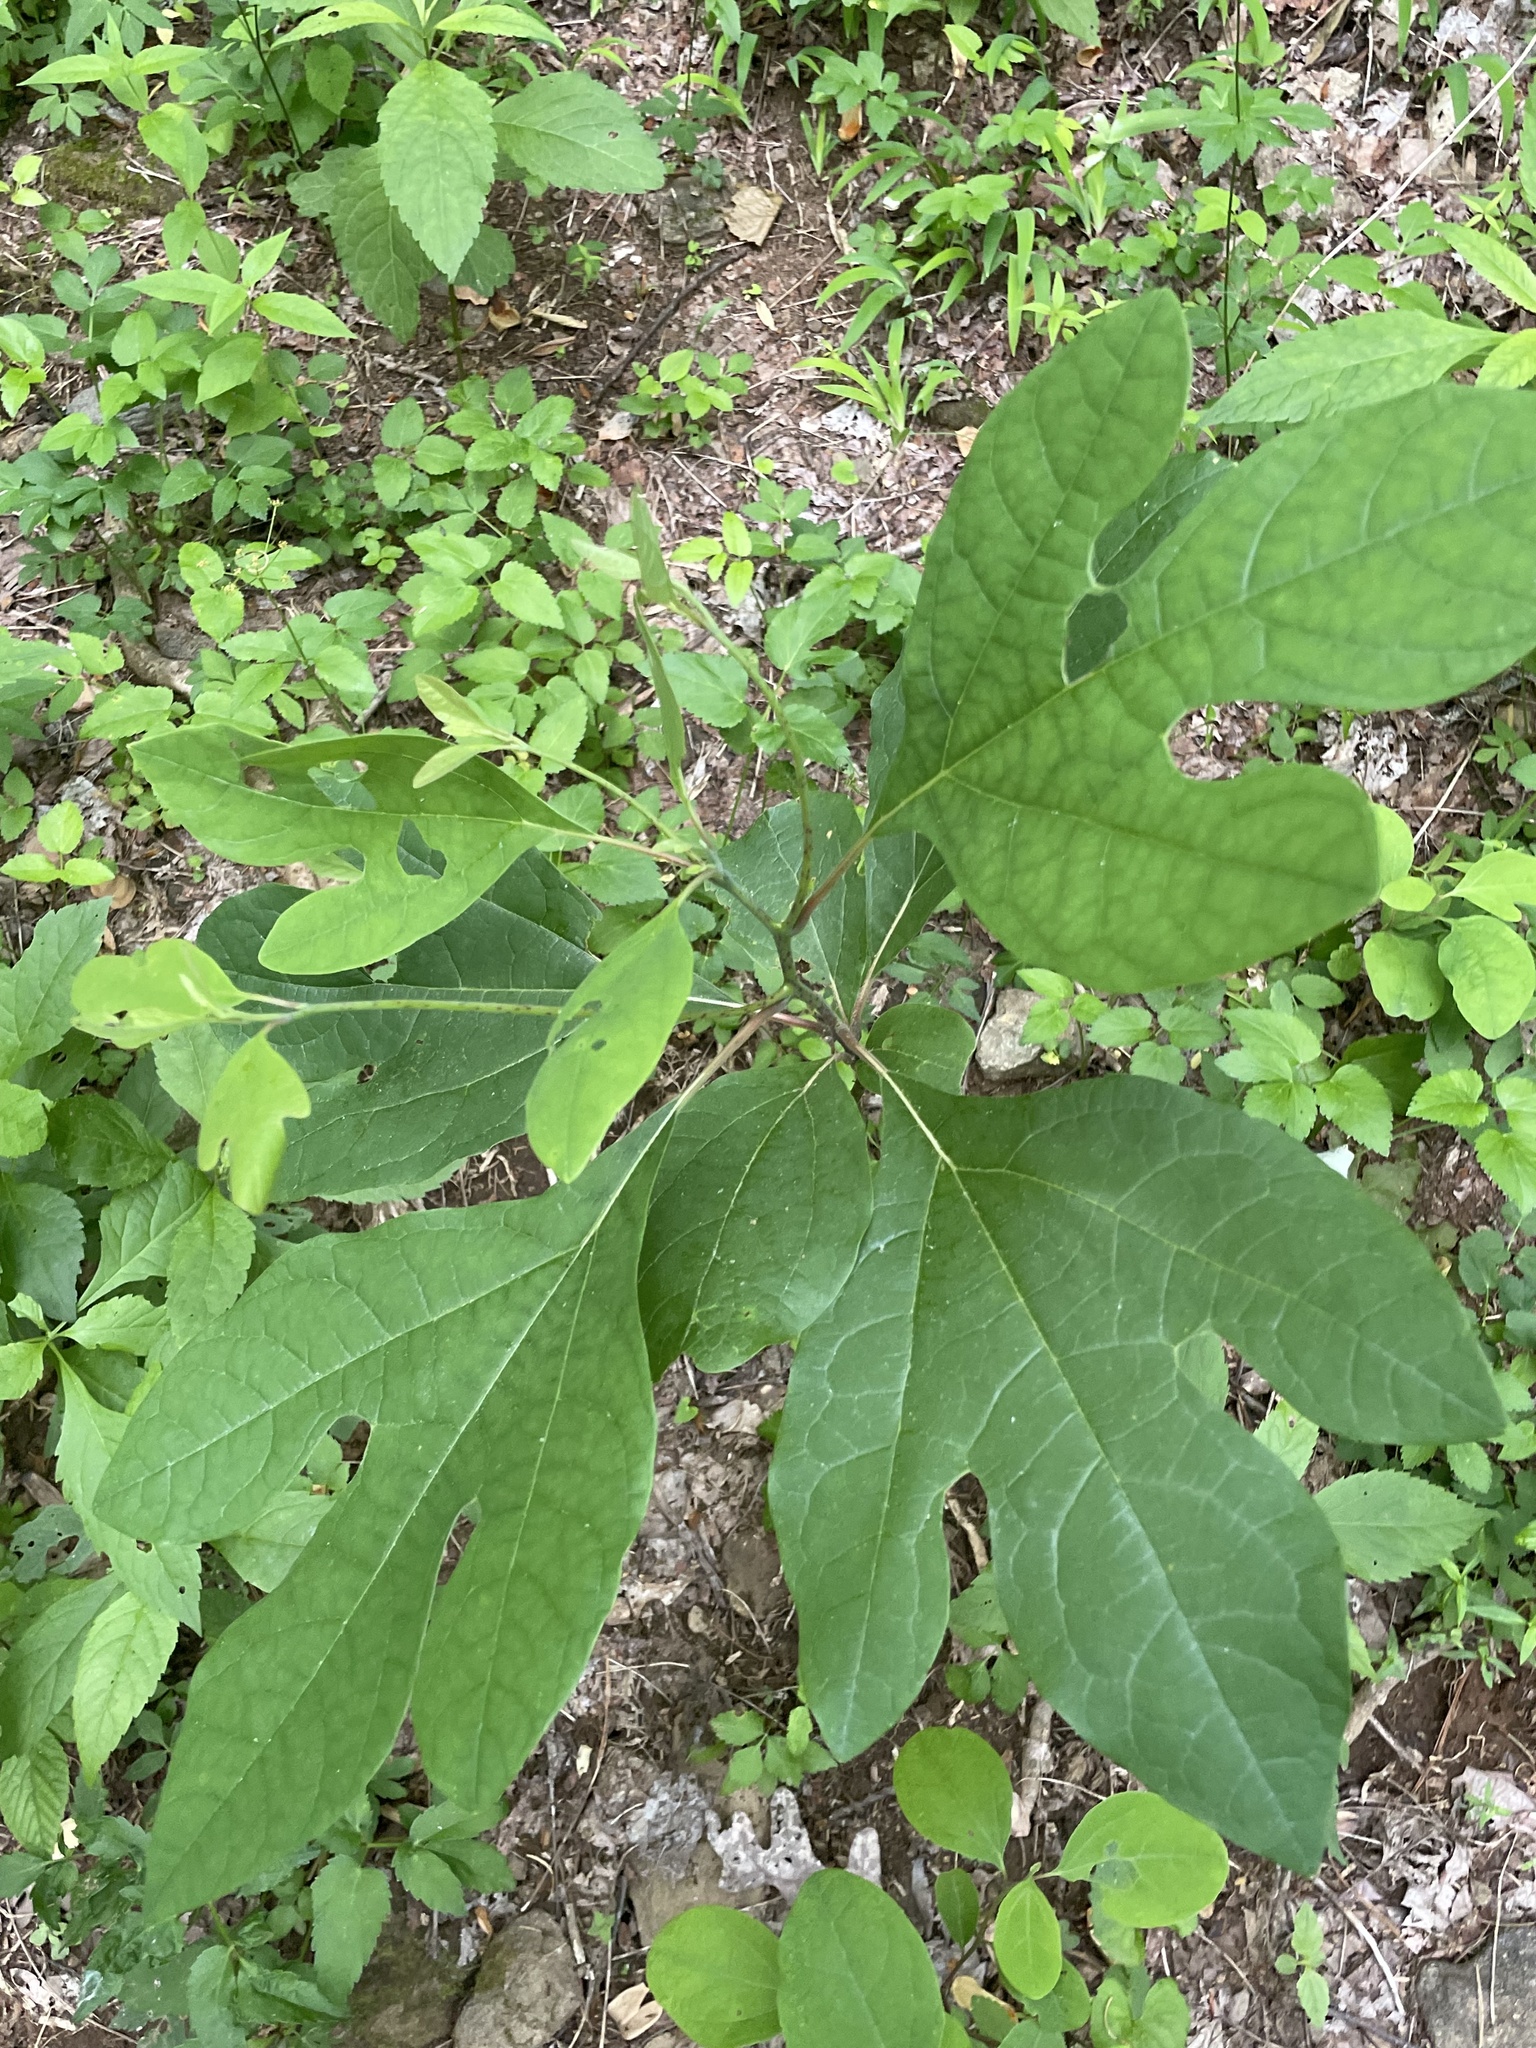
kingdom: Plantae
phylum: Tracheophyta
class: Magnoliopsida
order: Laurales
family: Lauraceae
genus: Sassafras
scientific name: Sassafras albidum
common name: Sassafras
